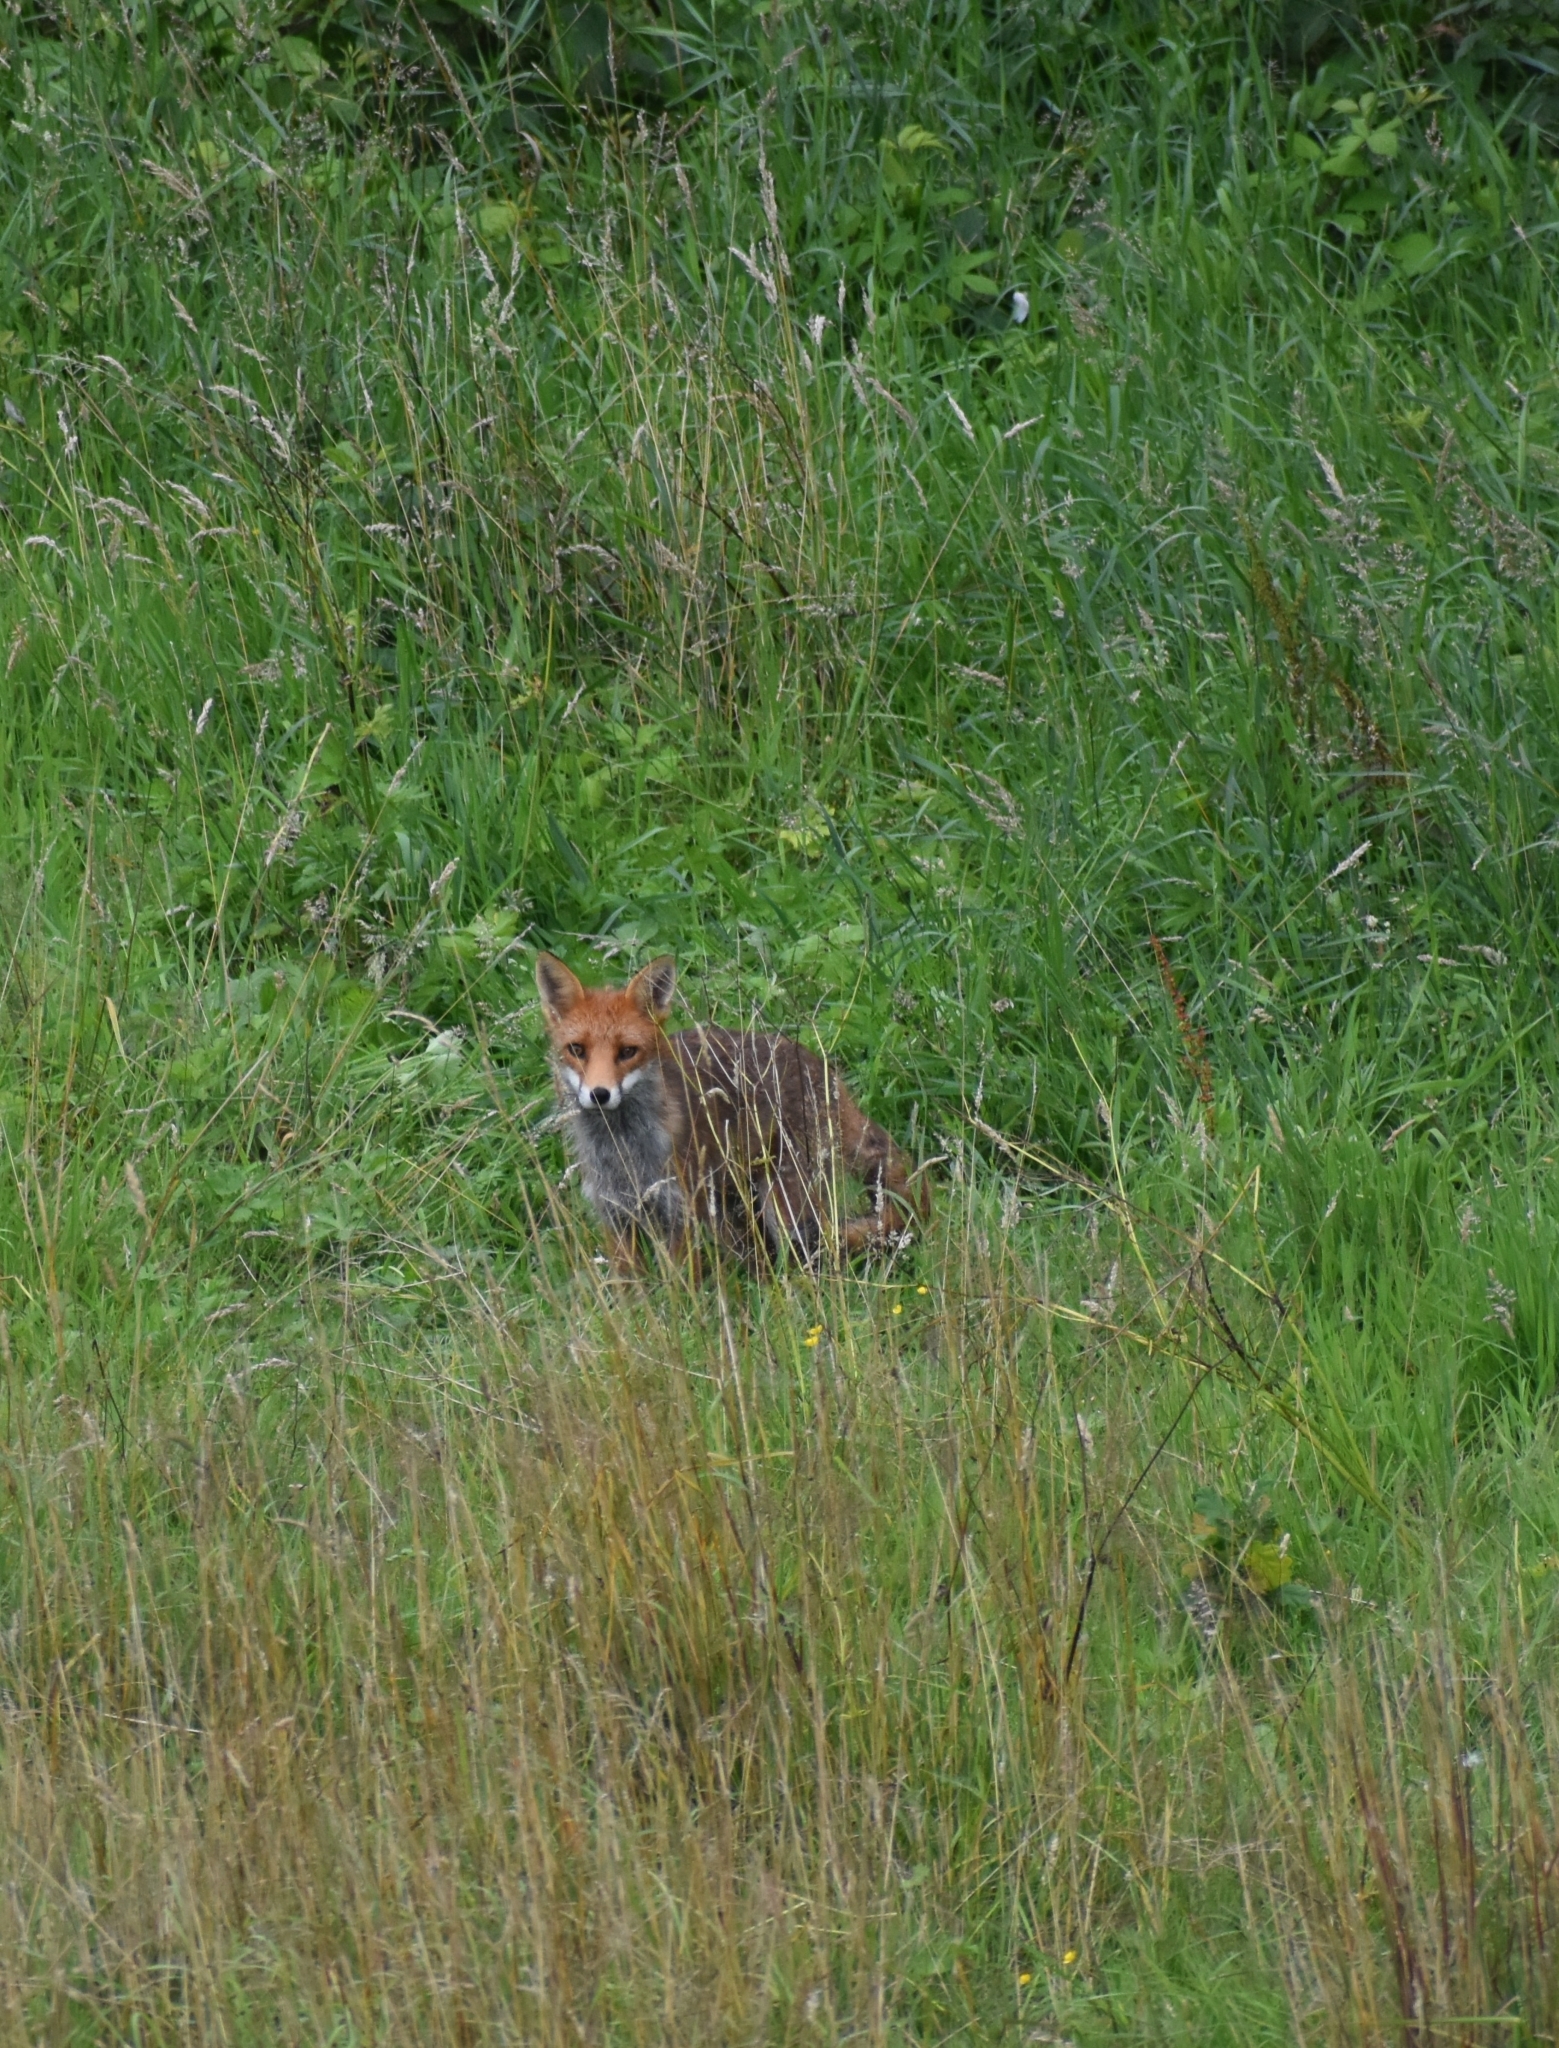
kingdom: Animalia
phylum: Chordata
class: Mammalia
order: Carnivora
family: Canidae
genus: Vulpes
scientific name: Vulpes vulpes
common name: Red fox
